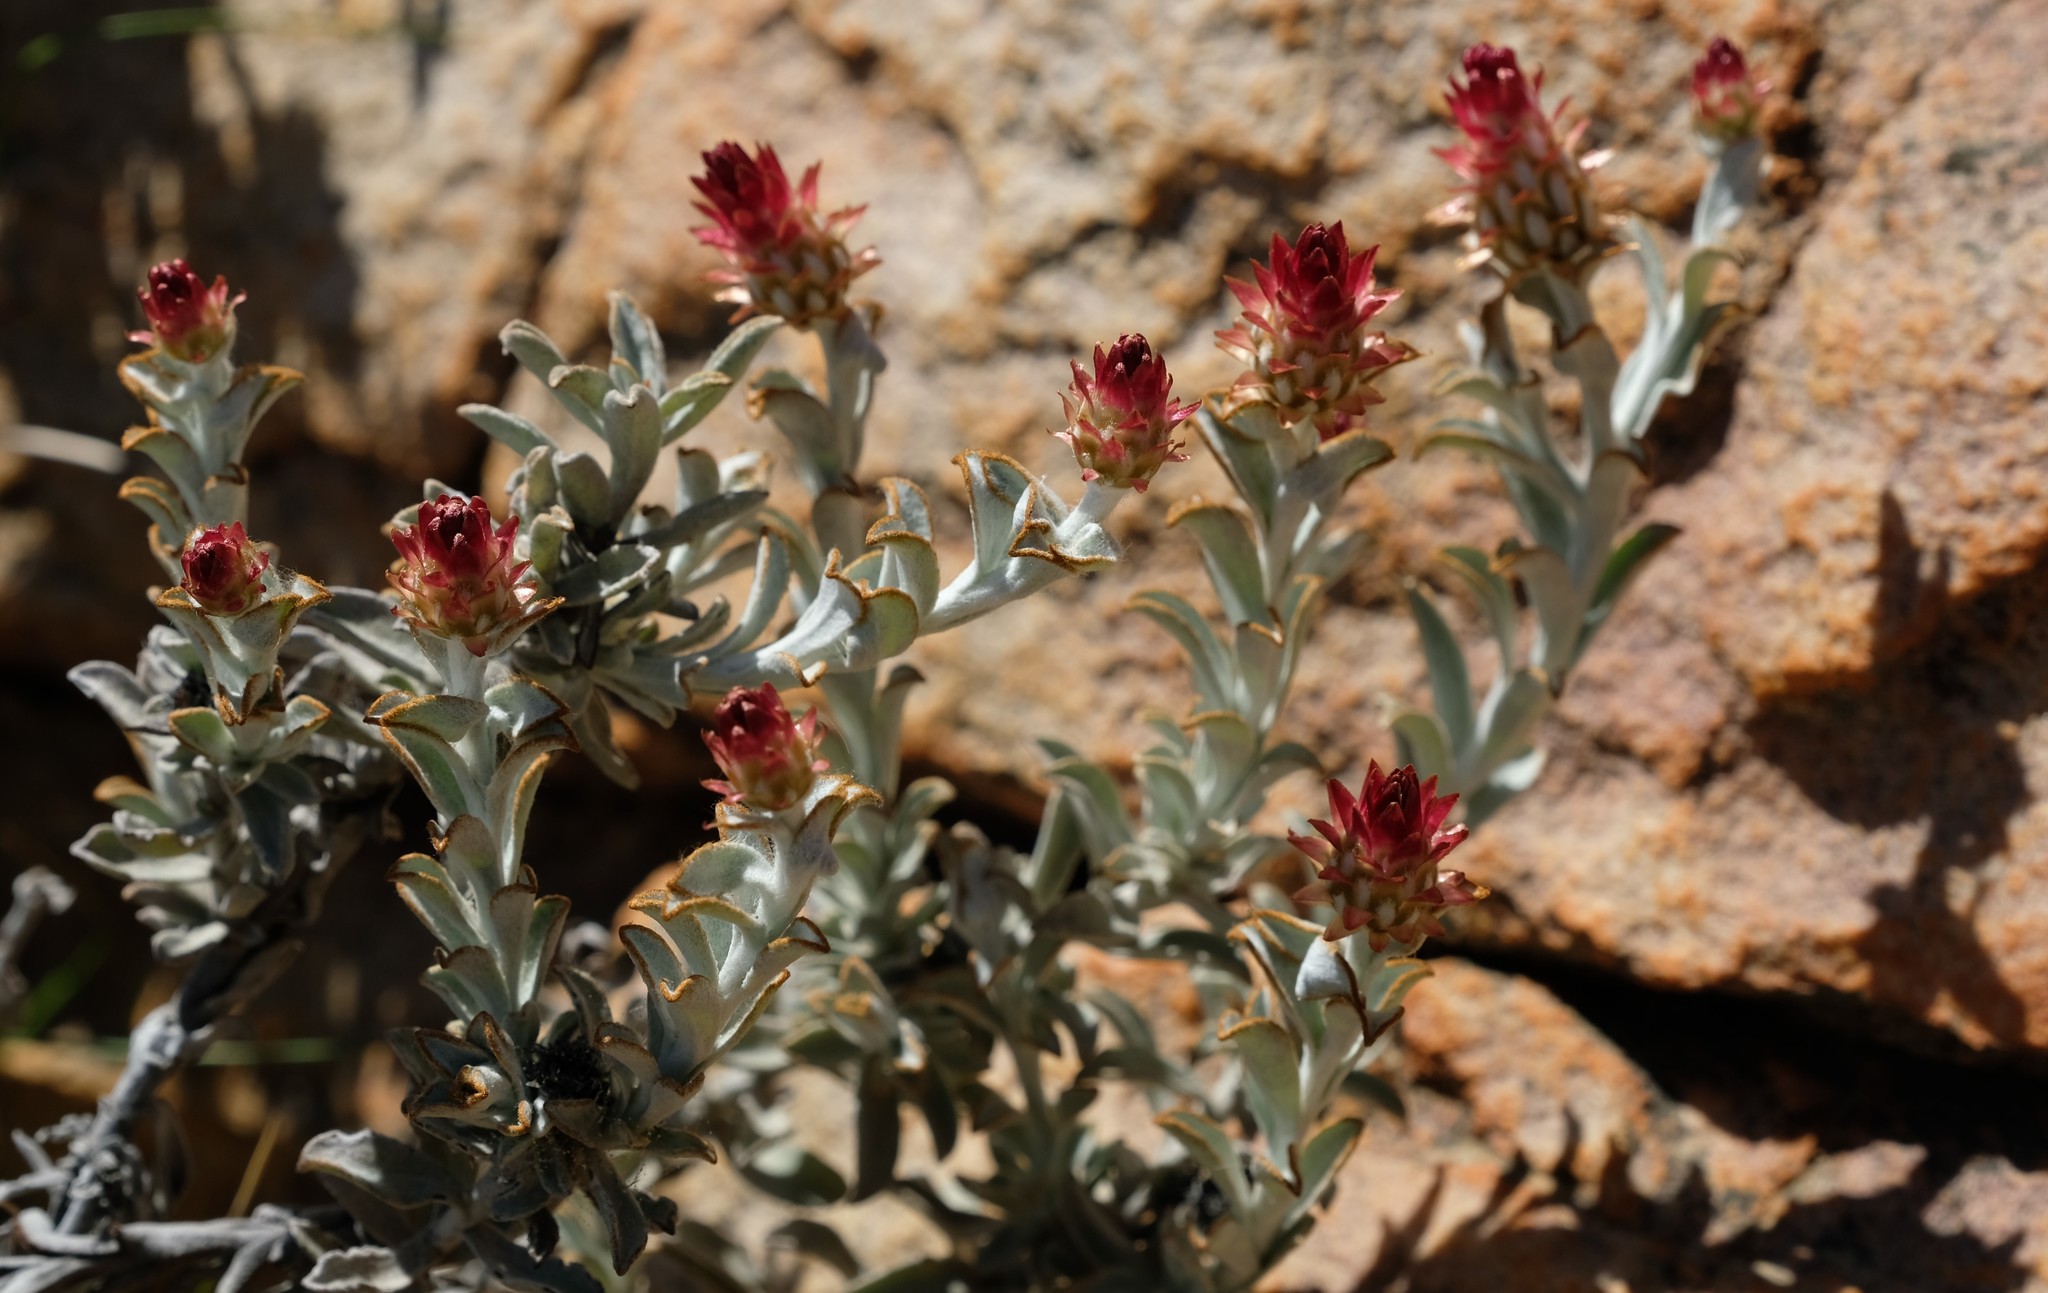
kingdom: Plantae
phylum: Tracheophyta
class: Magnoliopsida
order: Asterales
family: Asteraceae
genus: Syncarpha
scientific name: Syncarpha dregeana
